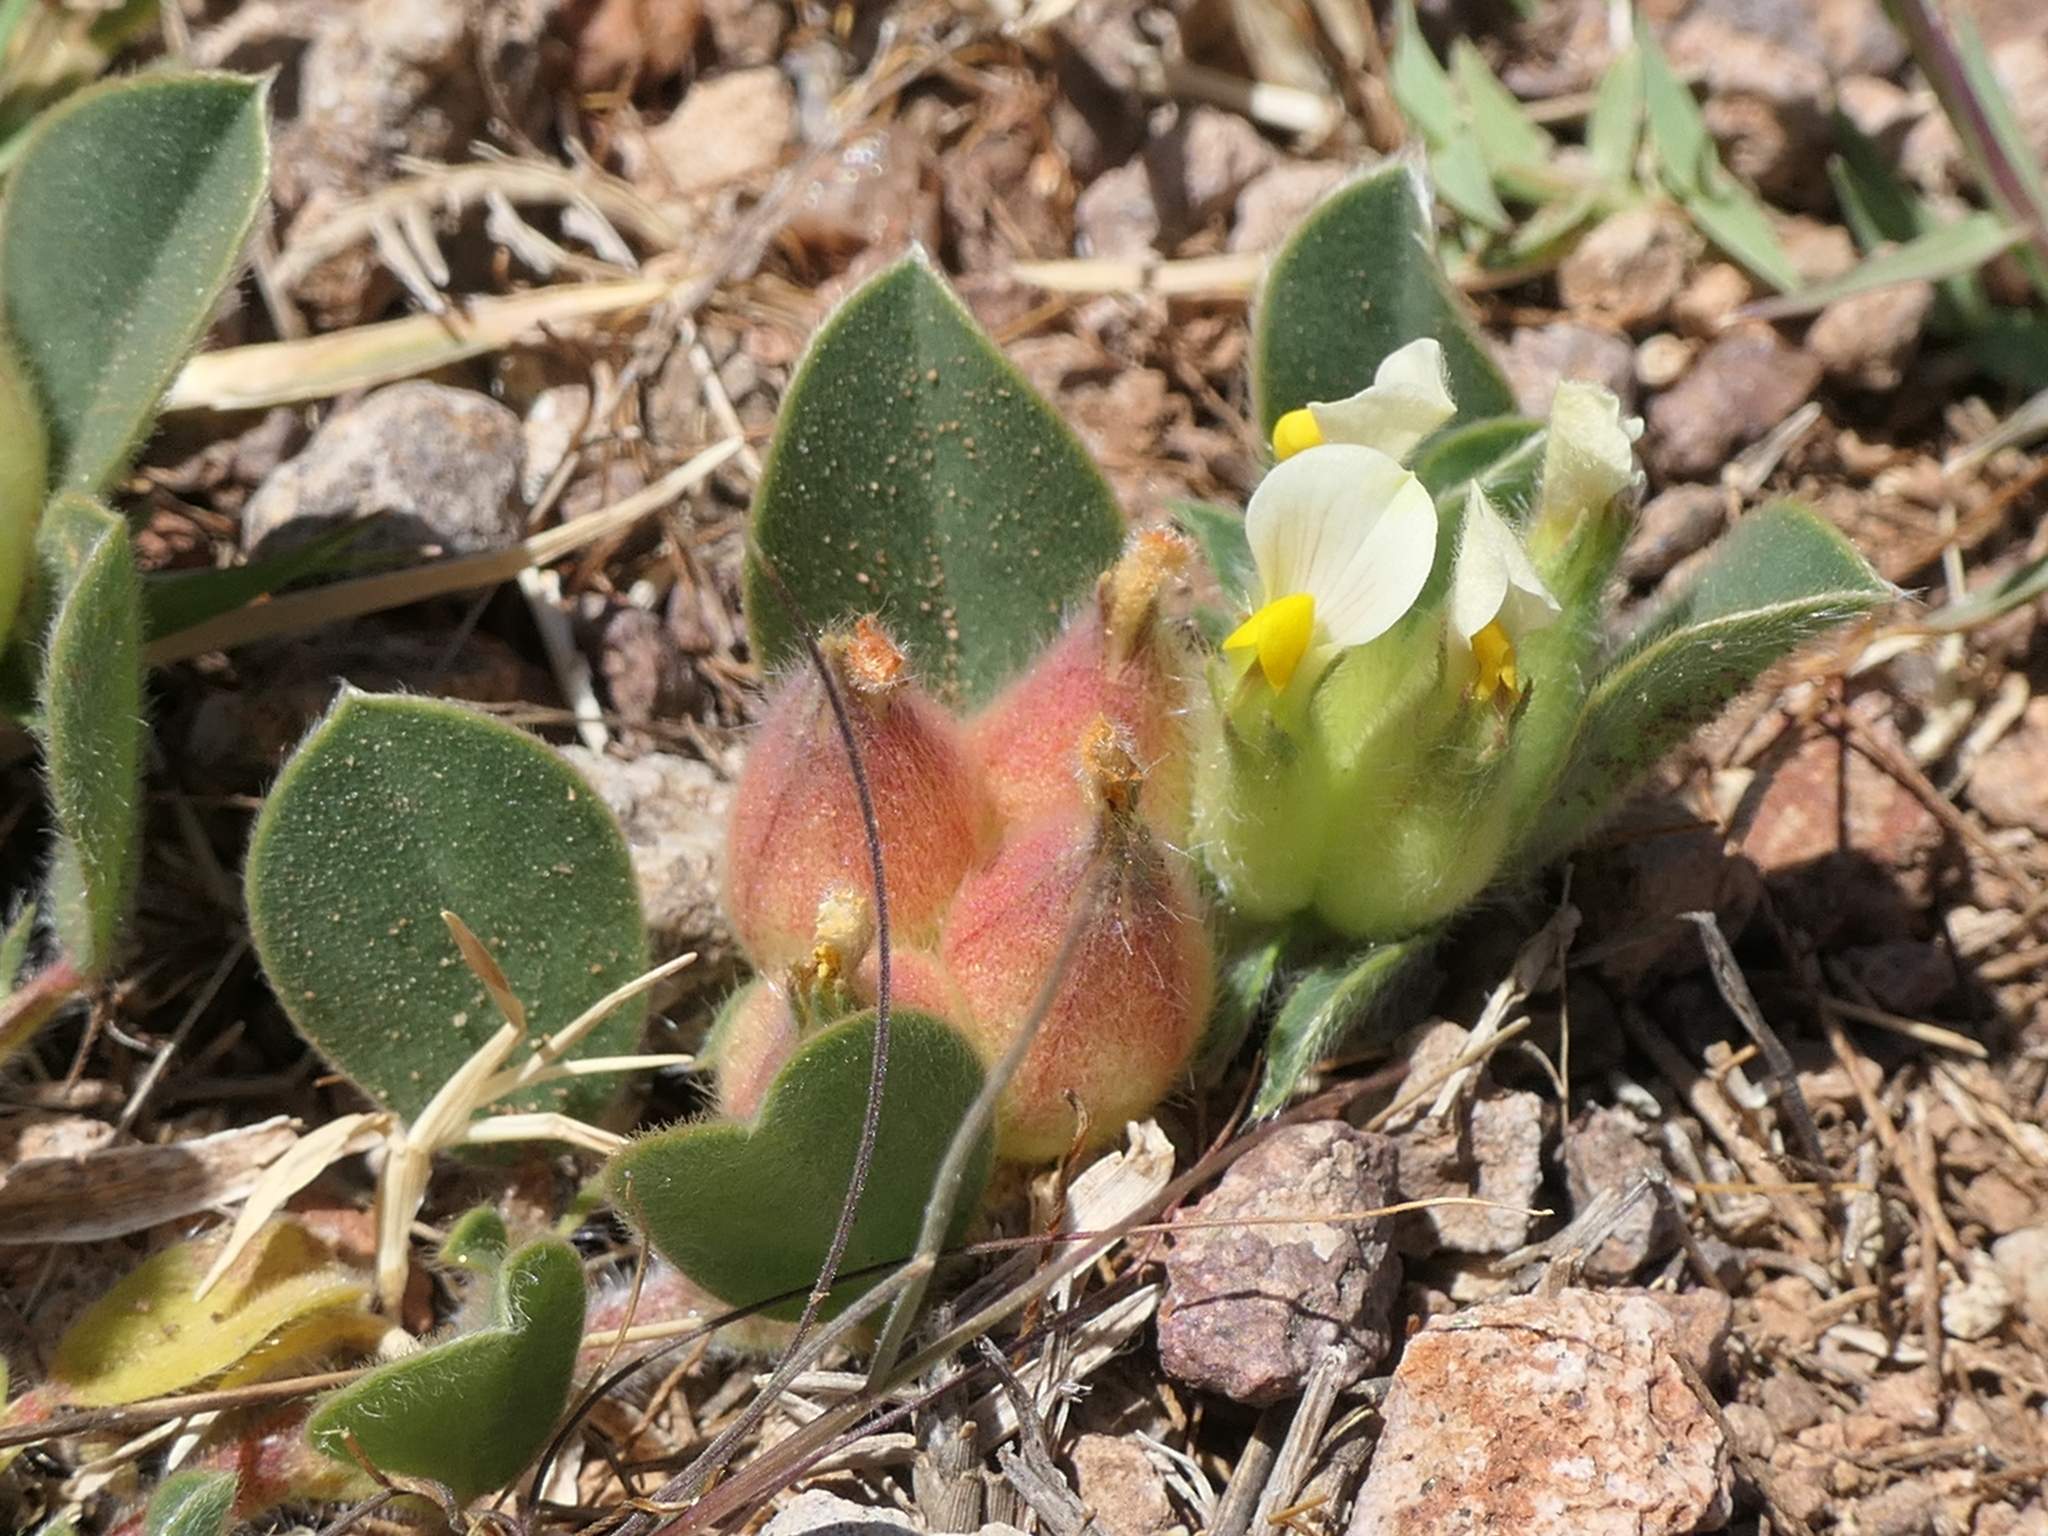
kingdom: Plantae
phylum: Tracheophyta
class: Magnoliopsida
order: Fabales
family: Fabaceae
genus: Tripodion
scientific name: Tripodion tetraphyllum
